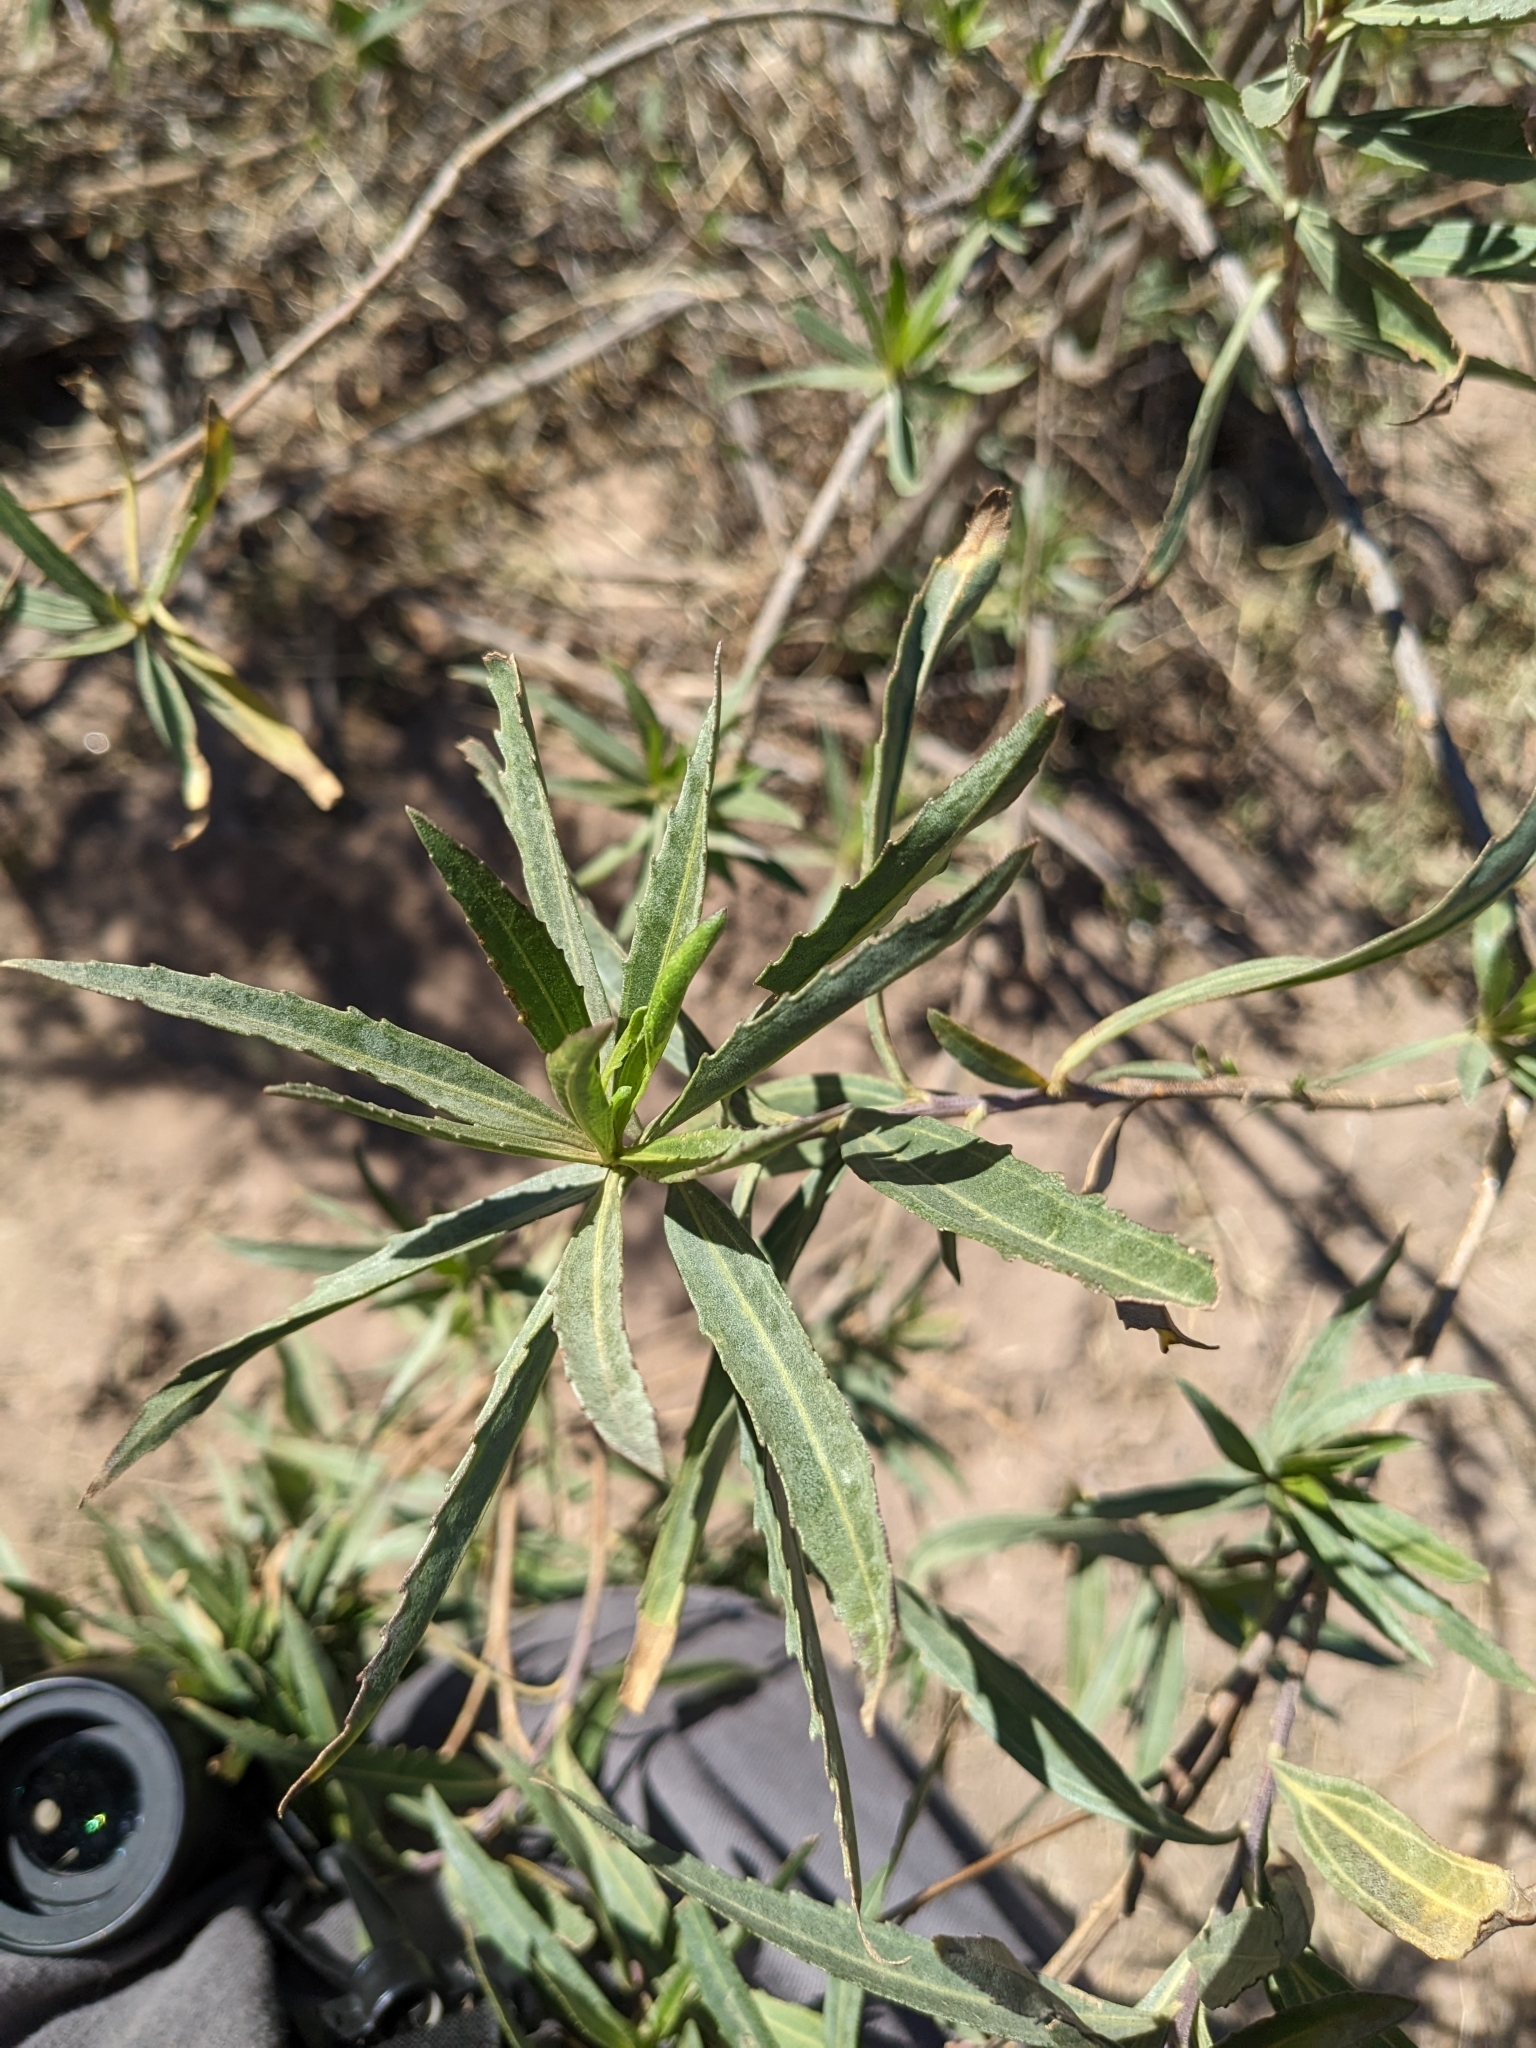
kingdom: Plantae
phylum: Tracheophyta
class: Magnoliopsida
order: Asterales
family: Asteraceae
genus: Baccharis
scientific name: Baccharis salicifolia
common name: Sticky baccharis
